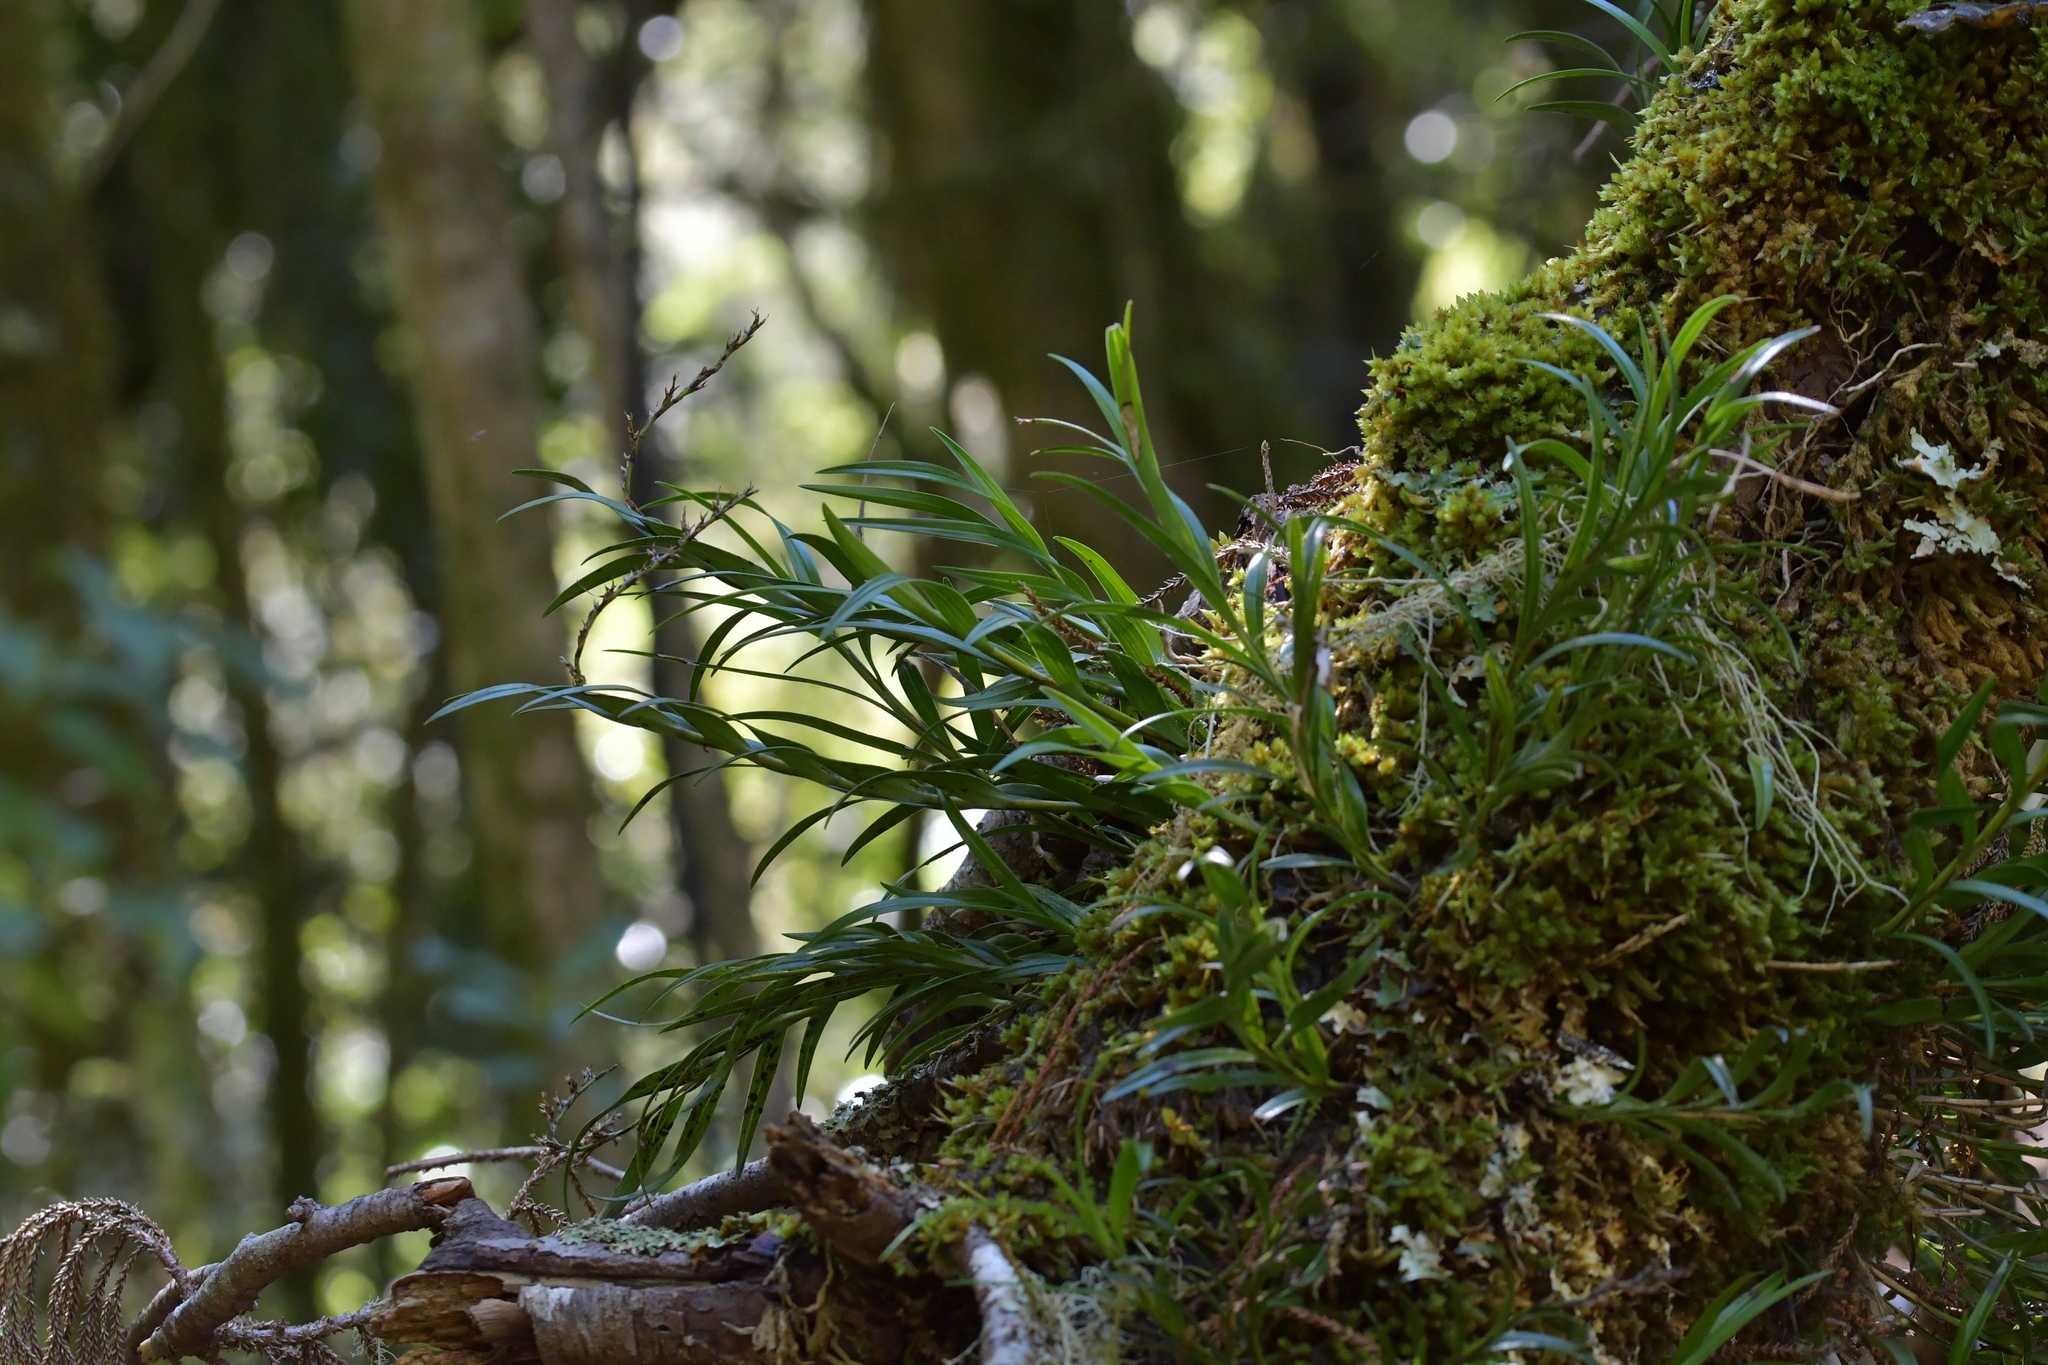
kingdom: Plantae
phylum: Tracheophyta
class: Liliopsida
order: Asparagales
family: Orchidaceae
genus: Earina
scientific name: Earina autumnalis
